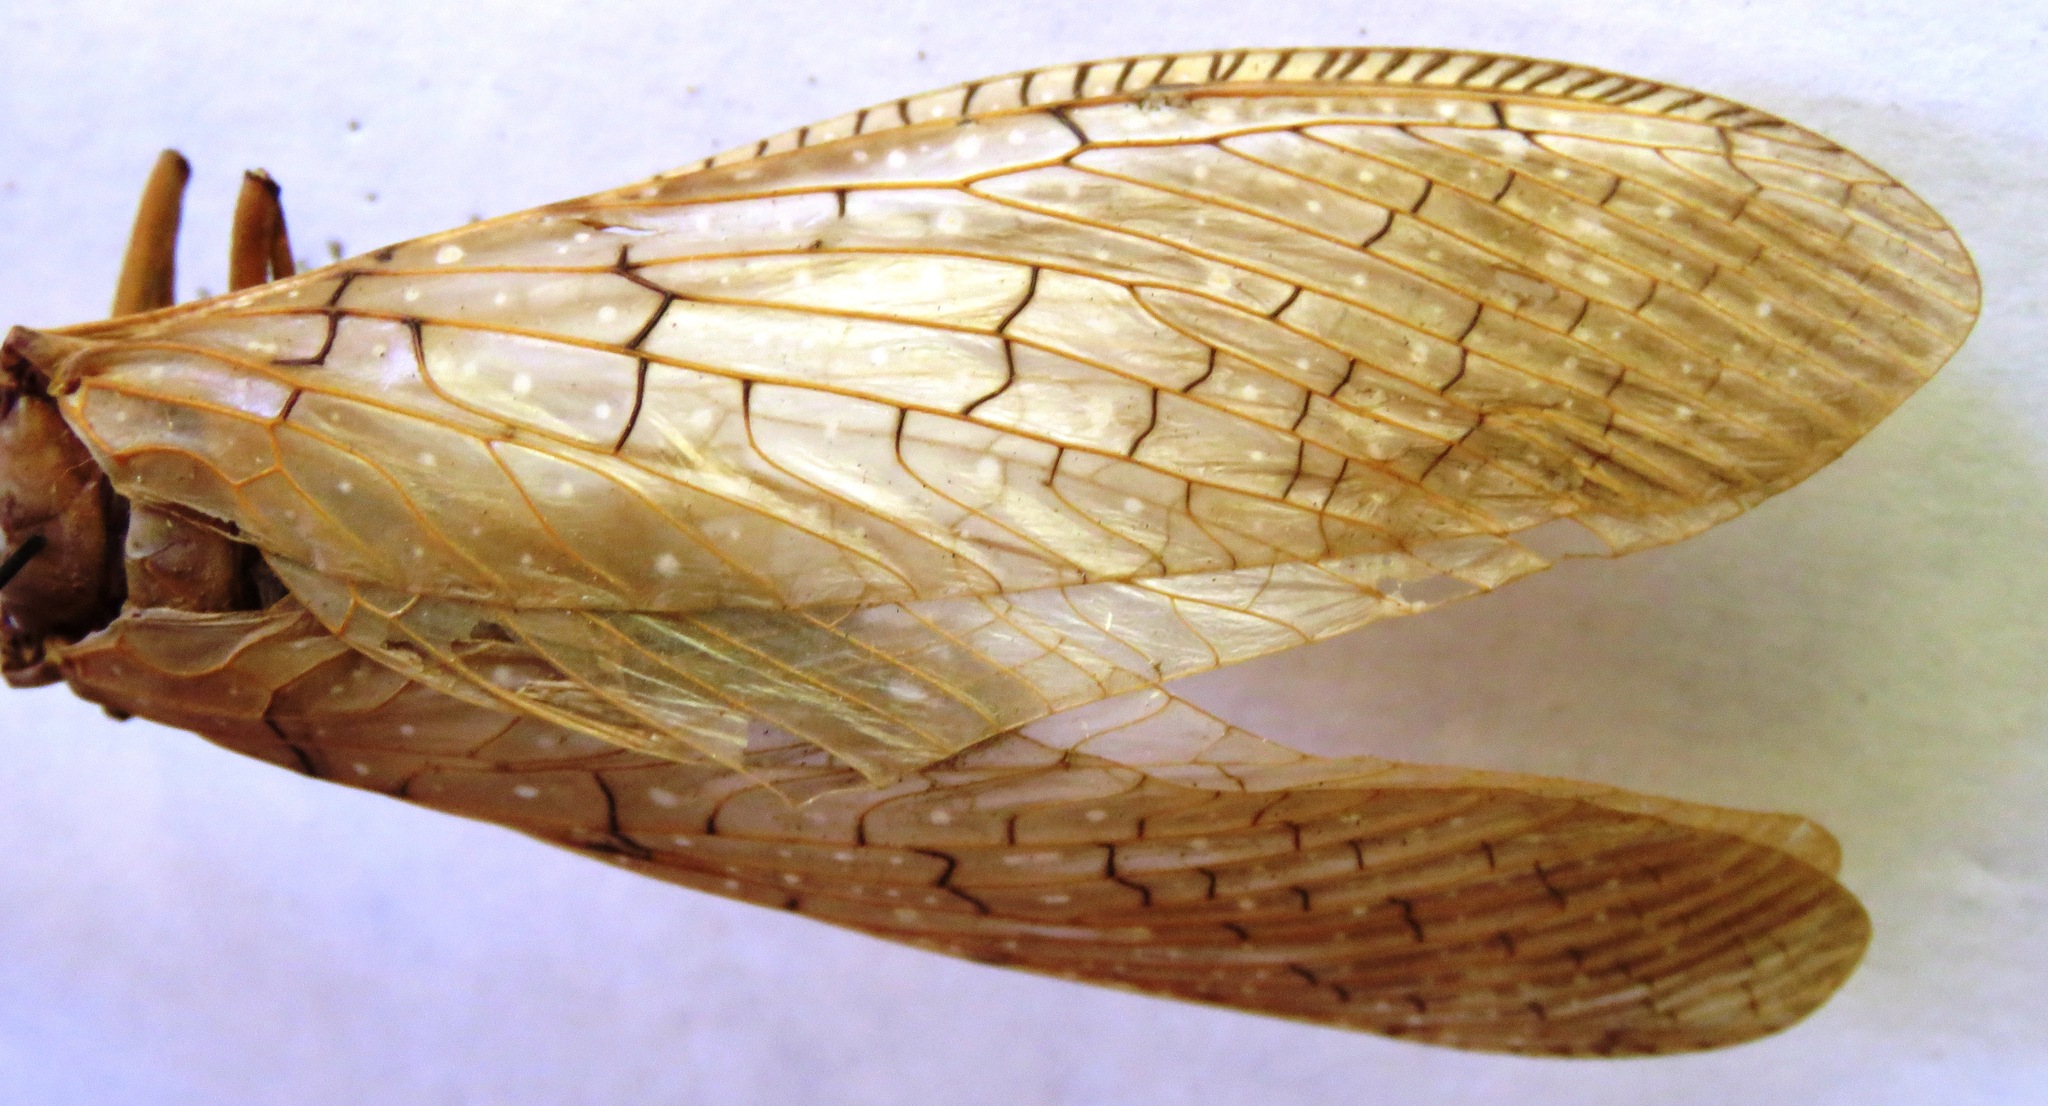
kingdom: Animalia
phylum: Arthropoda
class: Insecta
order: Megaloptera
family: Corydalidae
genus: Corydalus
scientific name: Corydalus luteus
